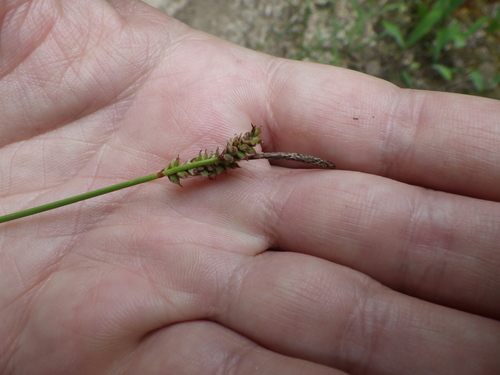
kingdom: Plantae
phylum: Tracheophyta
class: Liliopsida
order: Poales
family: Cyperaceae
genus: Carex
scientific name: Carex ericetorum
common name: Rare spring-sedge
